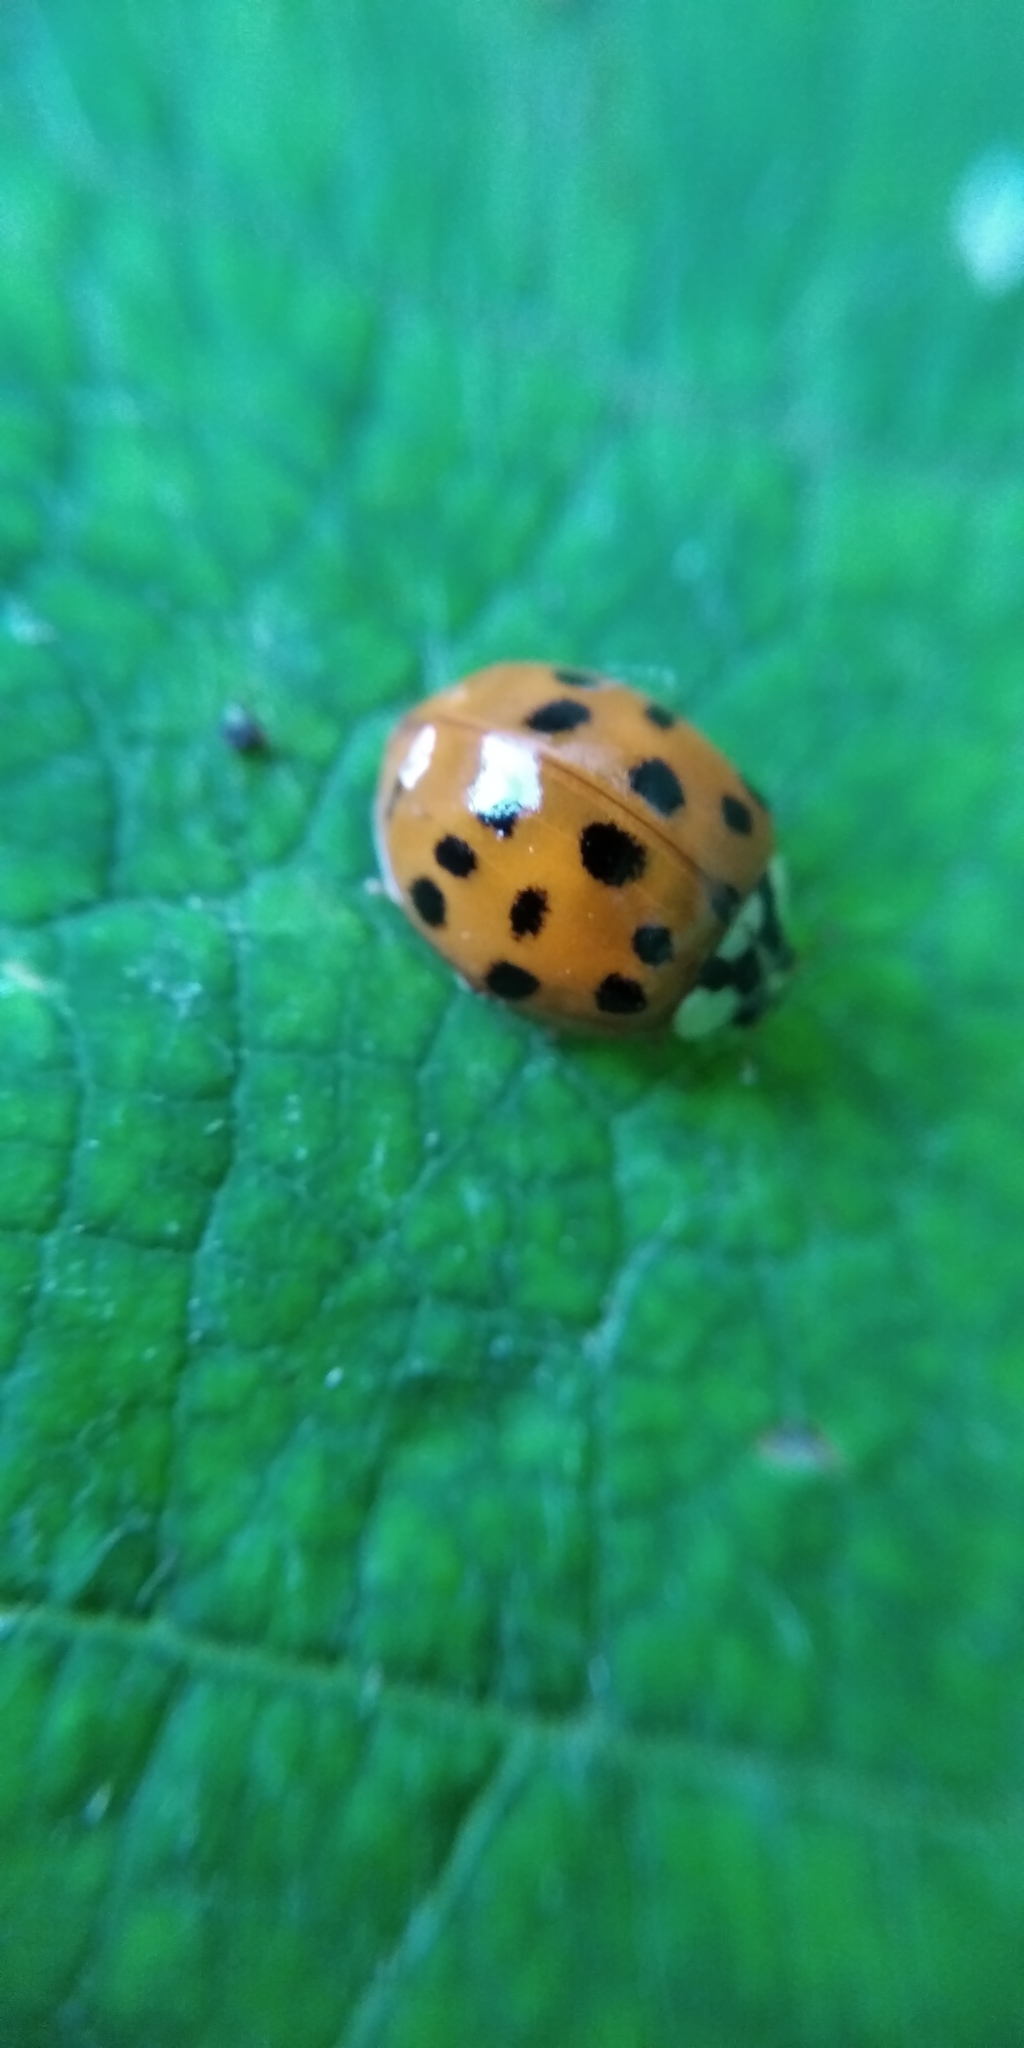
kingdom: Animalia
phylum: Arthropoda
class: Insecta
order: Coleoptera
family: Coccinellidae
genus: Harmonia
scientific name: Harmonia axyridis
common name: Harlequin ladybird
